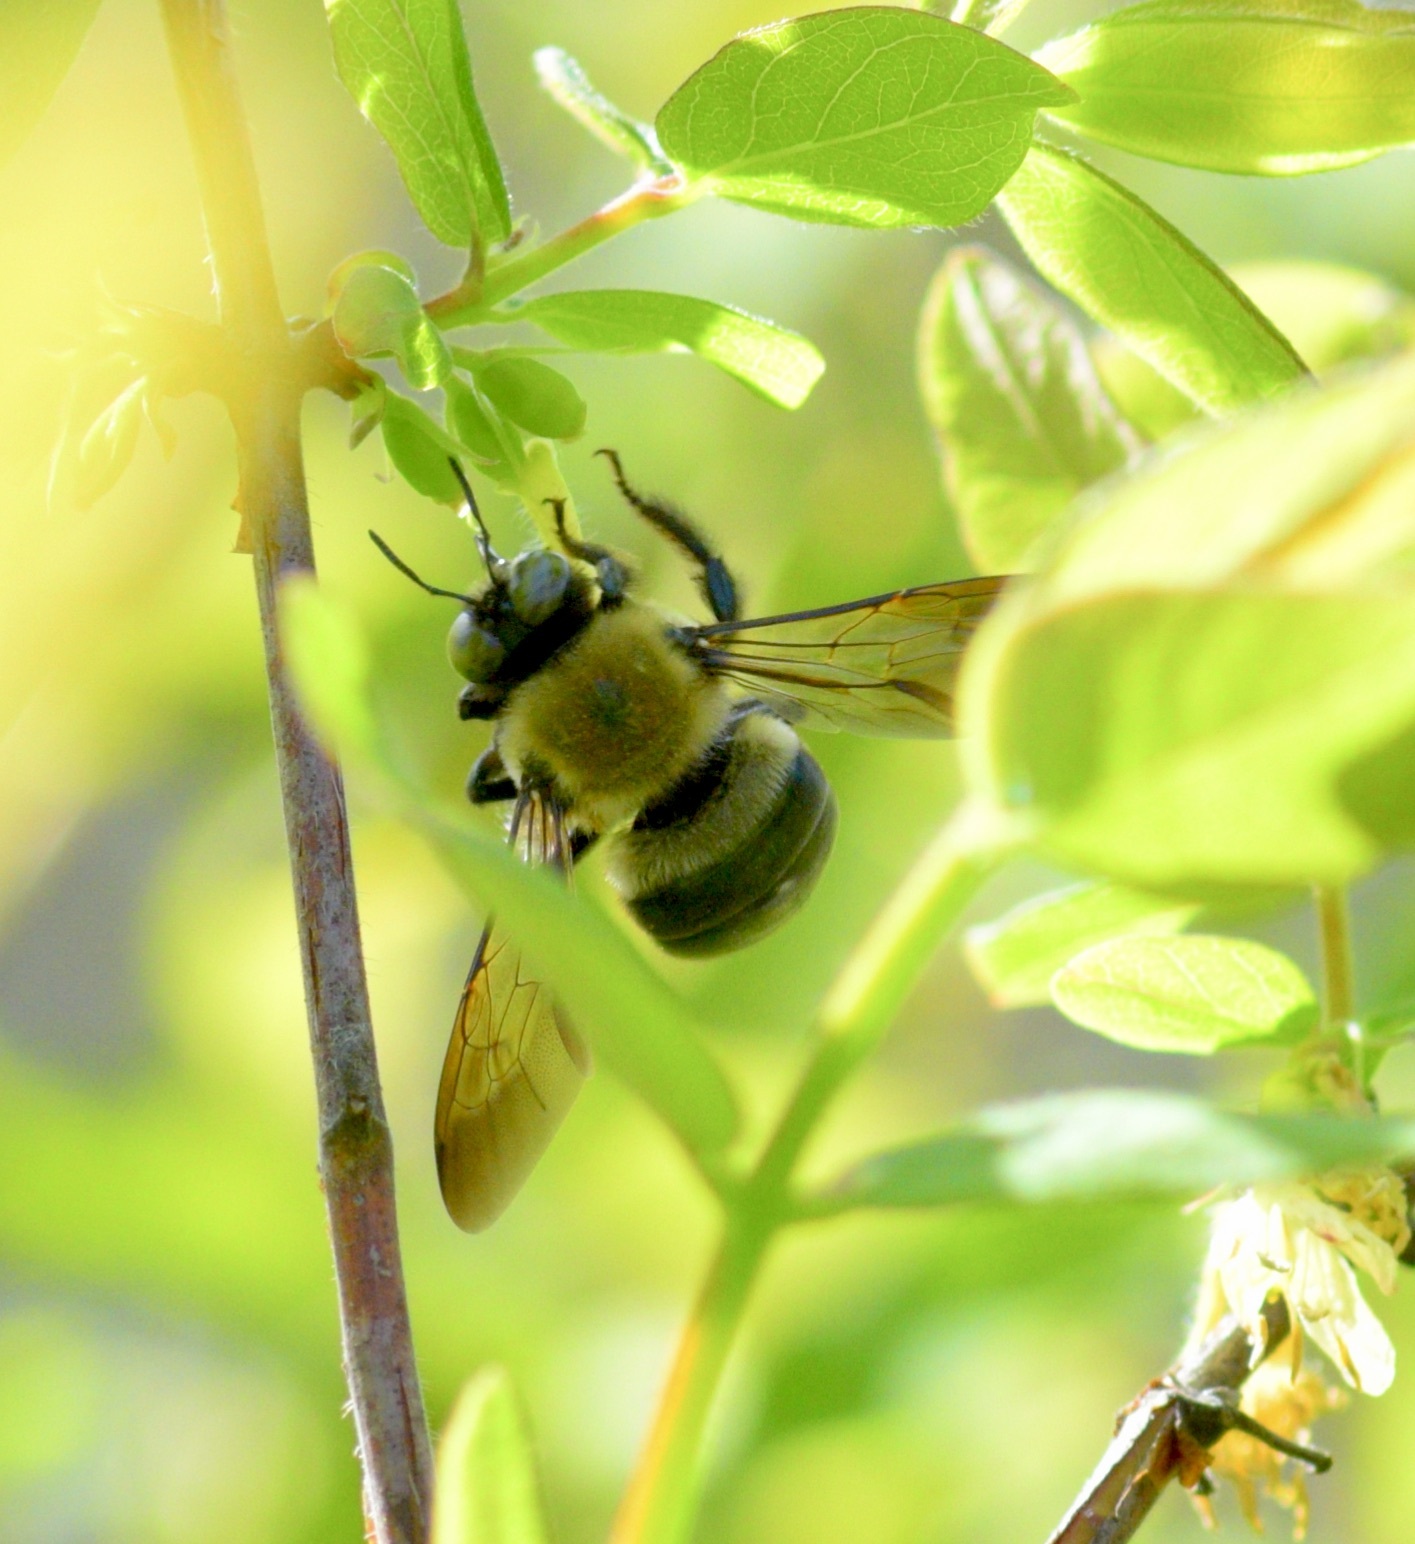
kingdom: Animalia
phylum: Arthropoda
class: Insecta
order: Hymenoptera
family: Apidae
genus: Xylocopa
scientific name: Xylocopa virginica
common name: Carpenter bee
